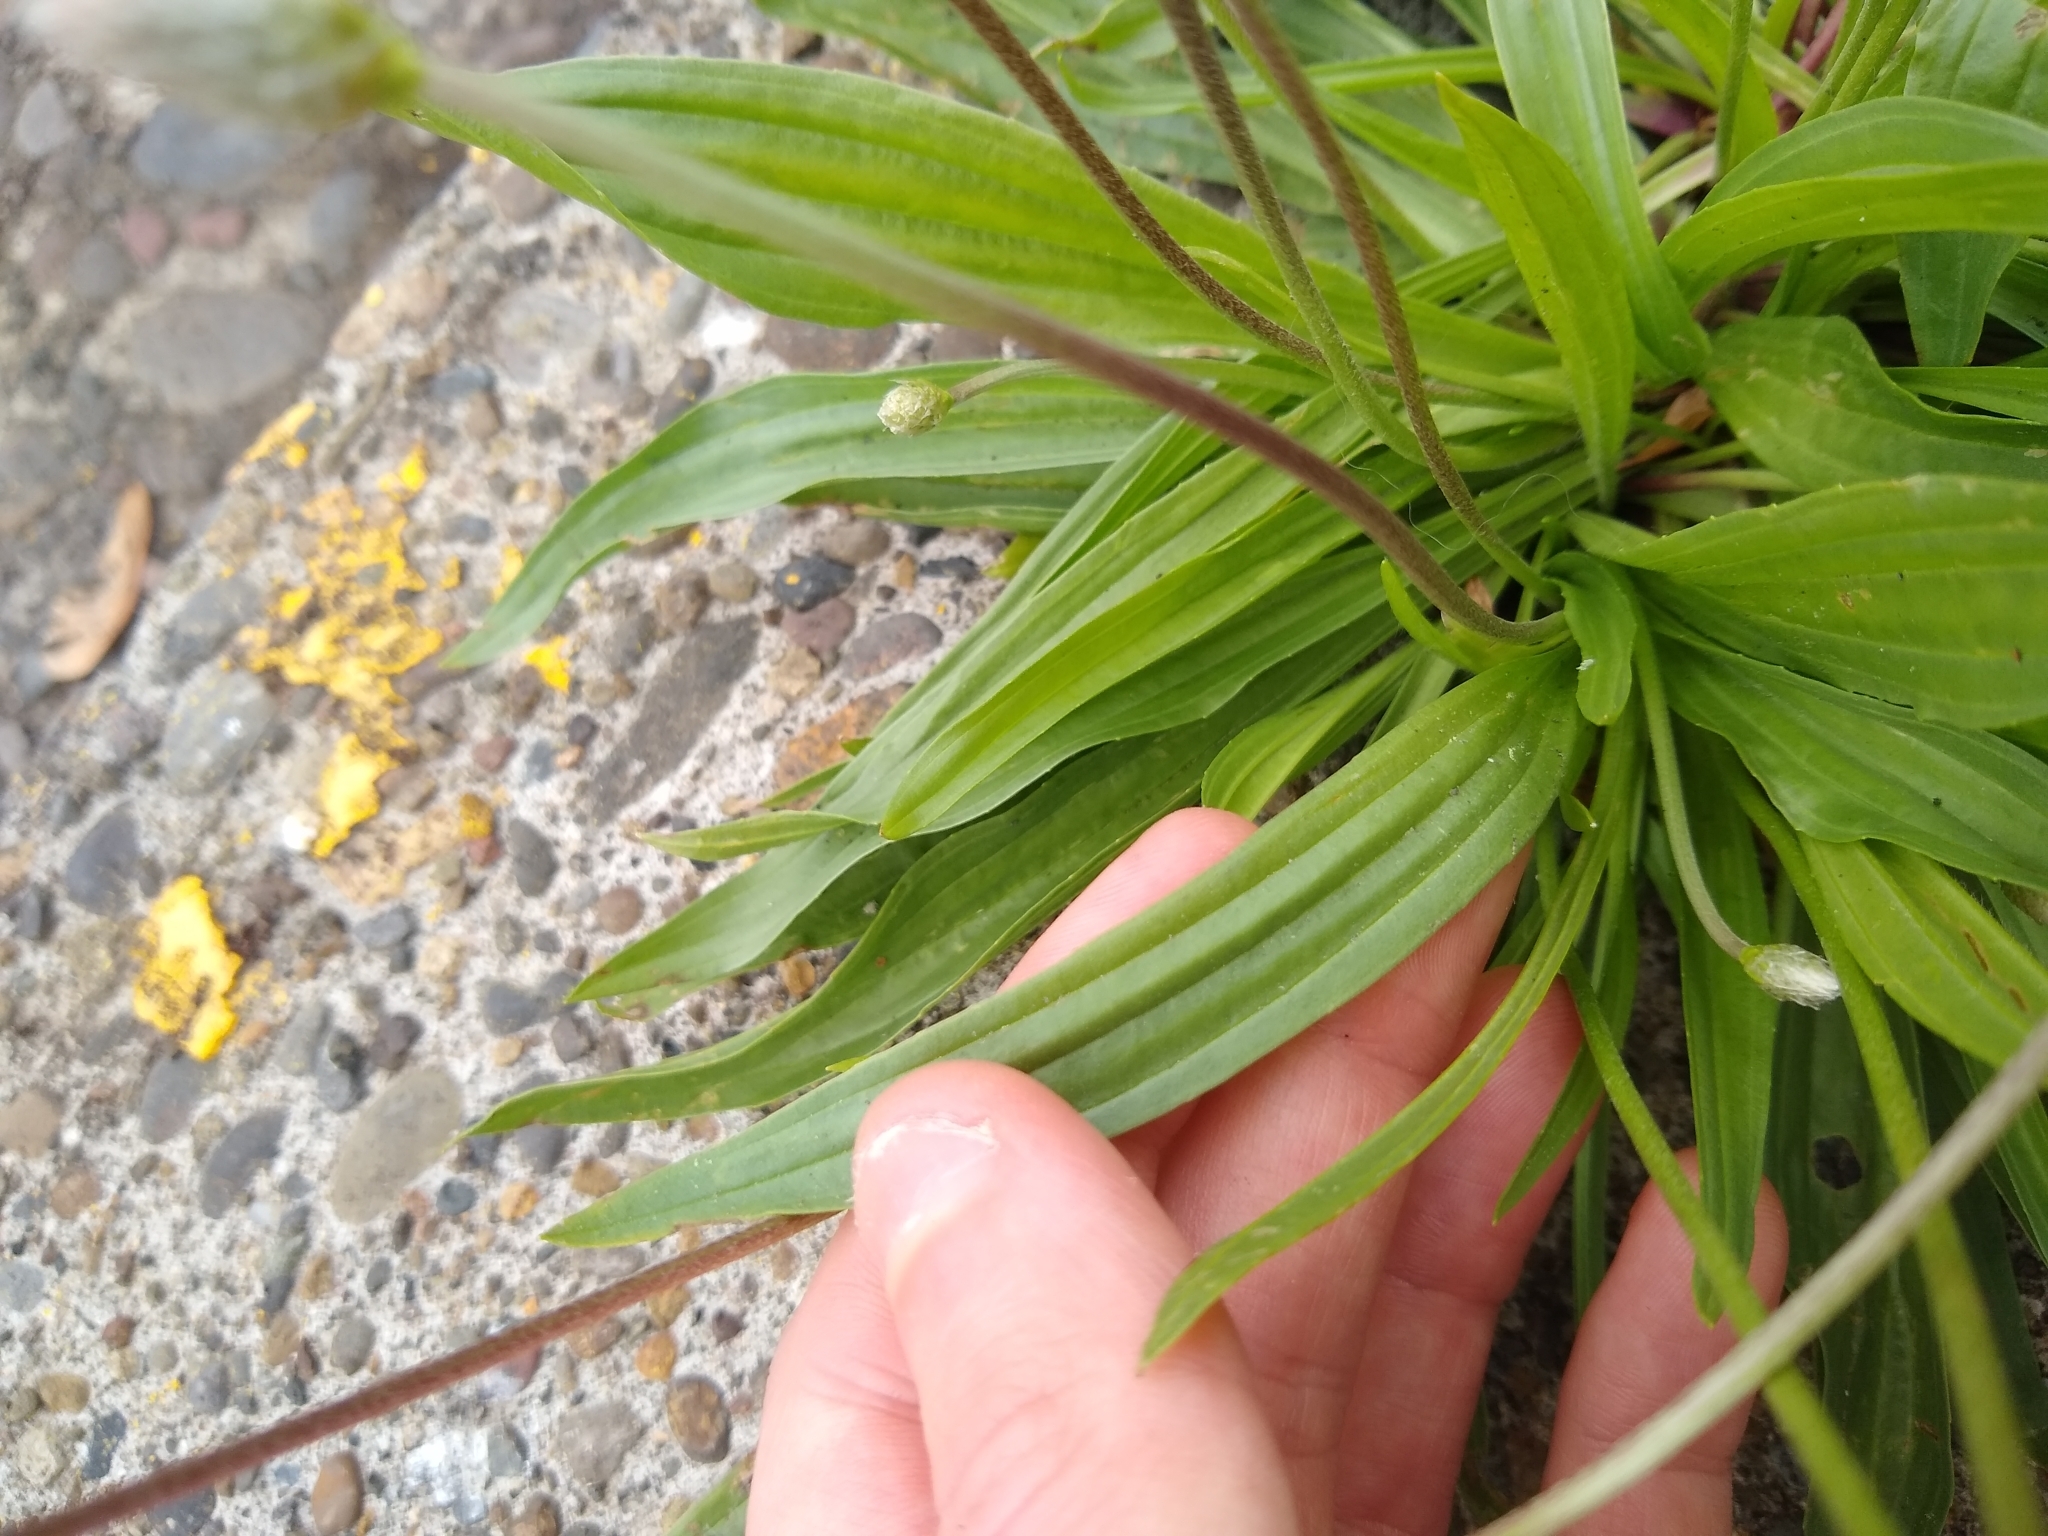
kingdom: Plantae
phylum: Tracheophyta
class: Magnoliopsida
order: Lamiales
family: Plantaginaceae
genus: Plantago
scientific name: Plantago lanceolata
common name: Ribwort plantain
